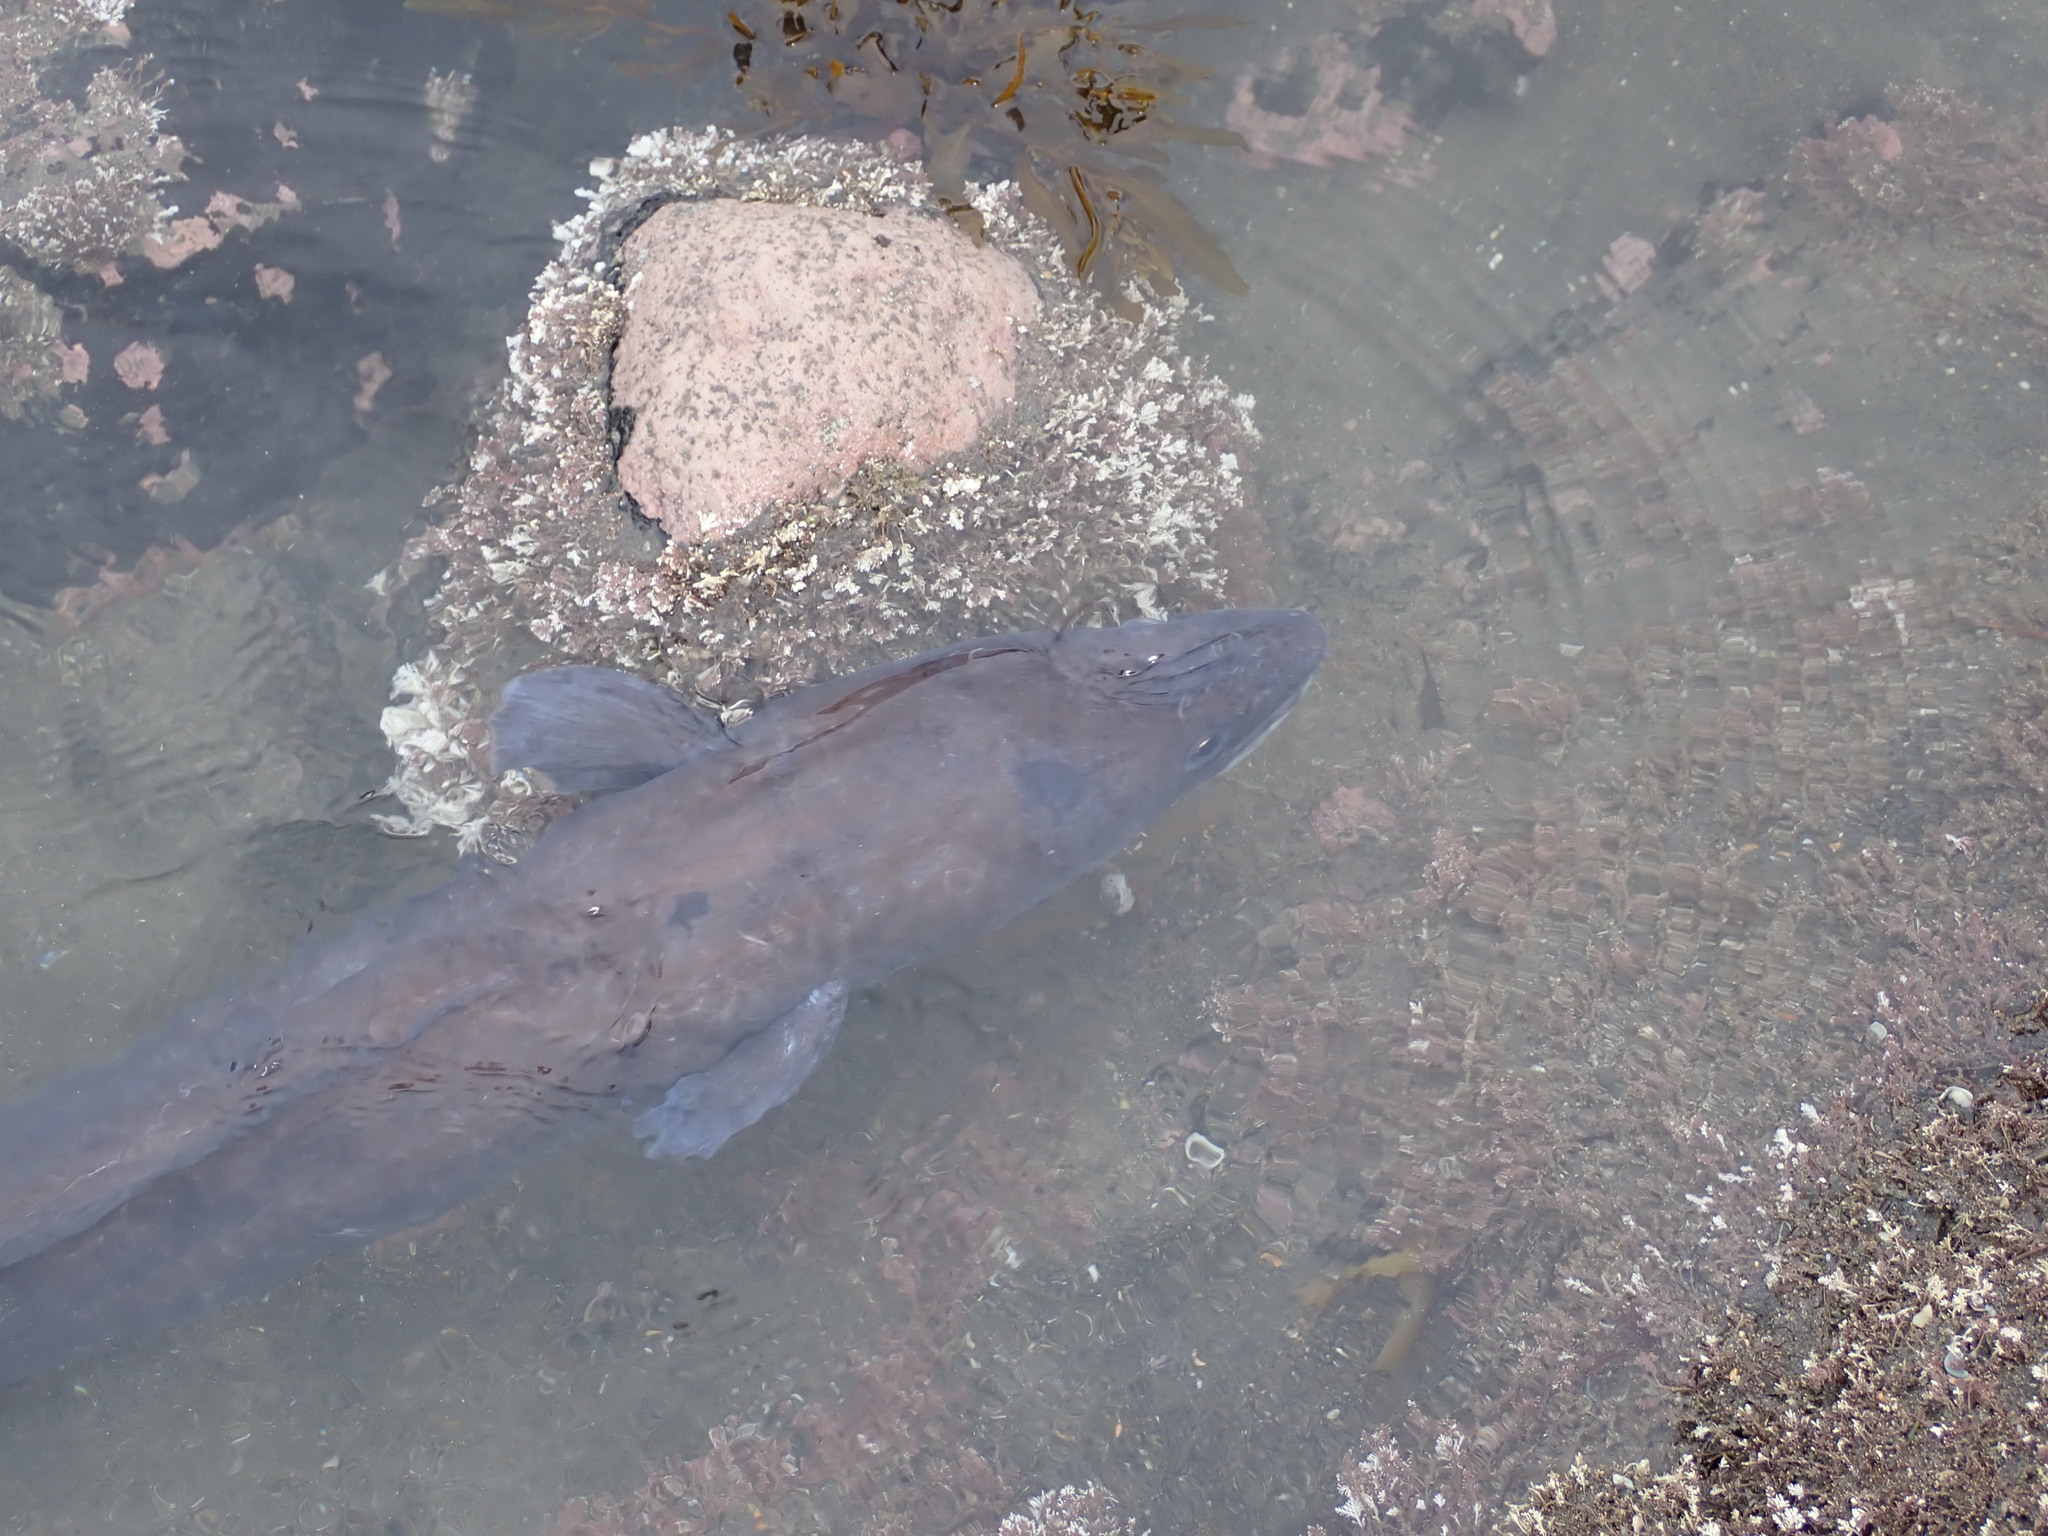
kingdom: Animalia
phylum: Chordata
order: Anguilliformes
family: Congridae
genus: Conger
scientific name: Conger verreauxi
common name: Conger eel
